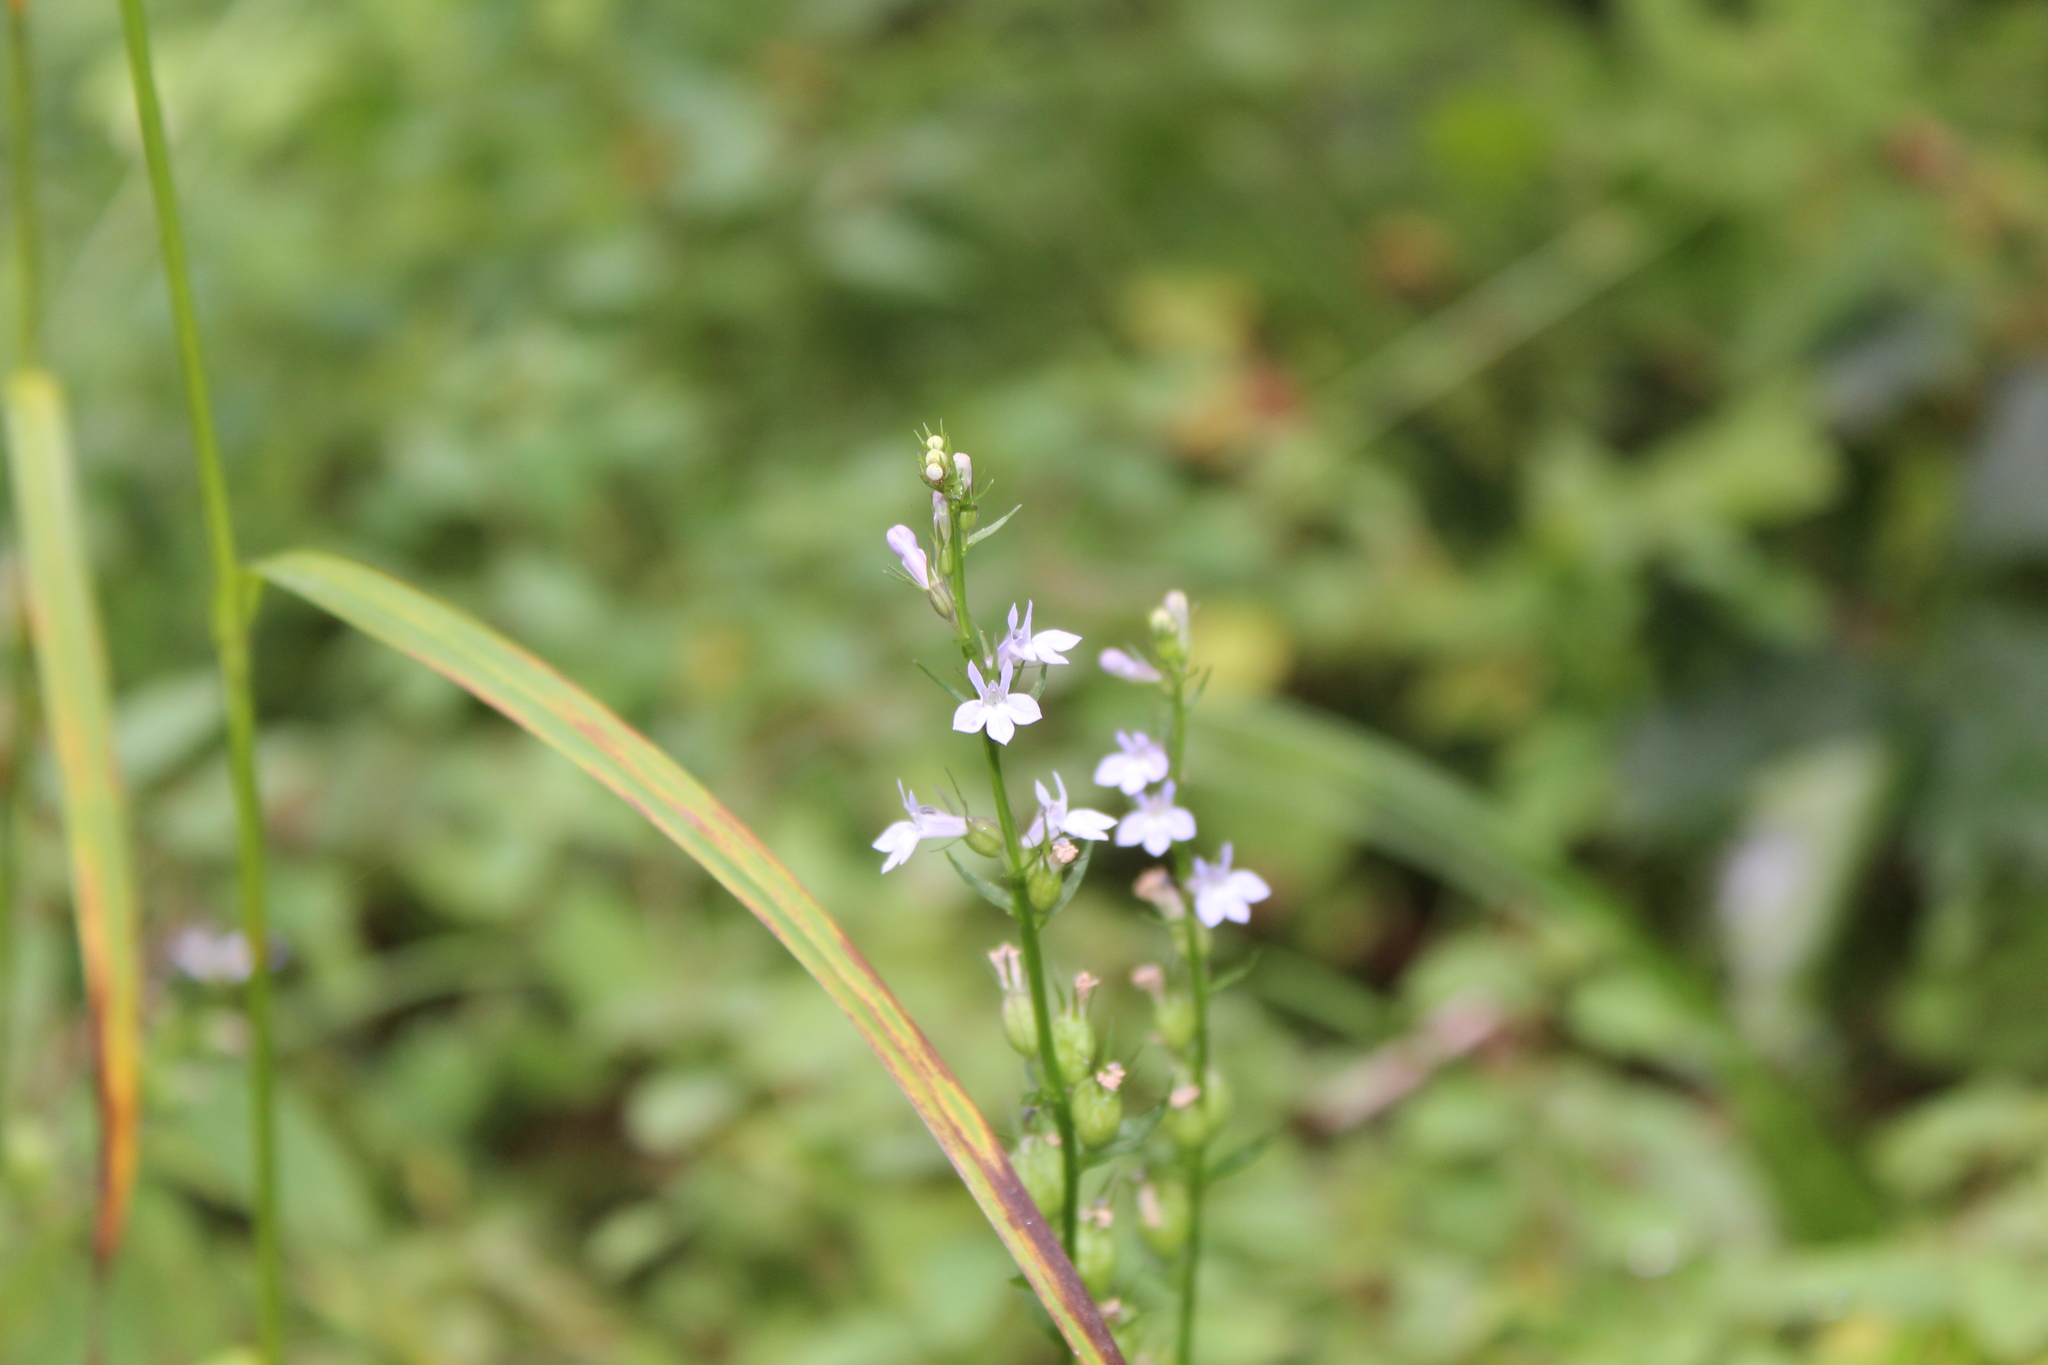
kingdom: Plantae
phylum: Tracheophyta
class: Magnoliopsida
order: Asterales
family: Campanulaceae
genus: Lobelia
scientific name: Lobelia inflata
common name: Indian tobacco
